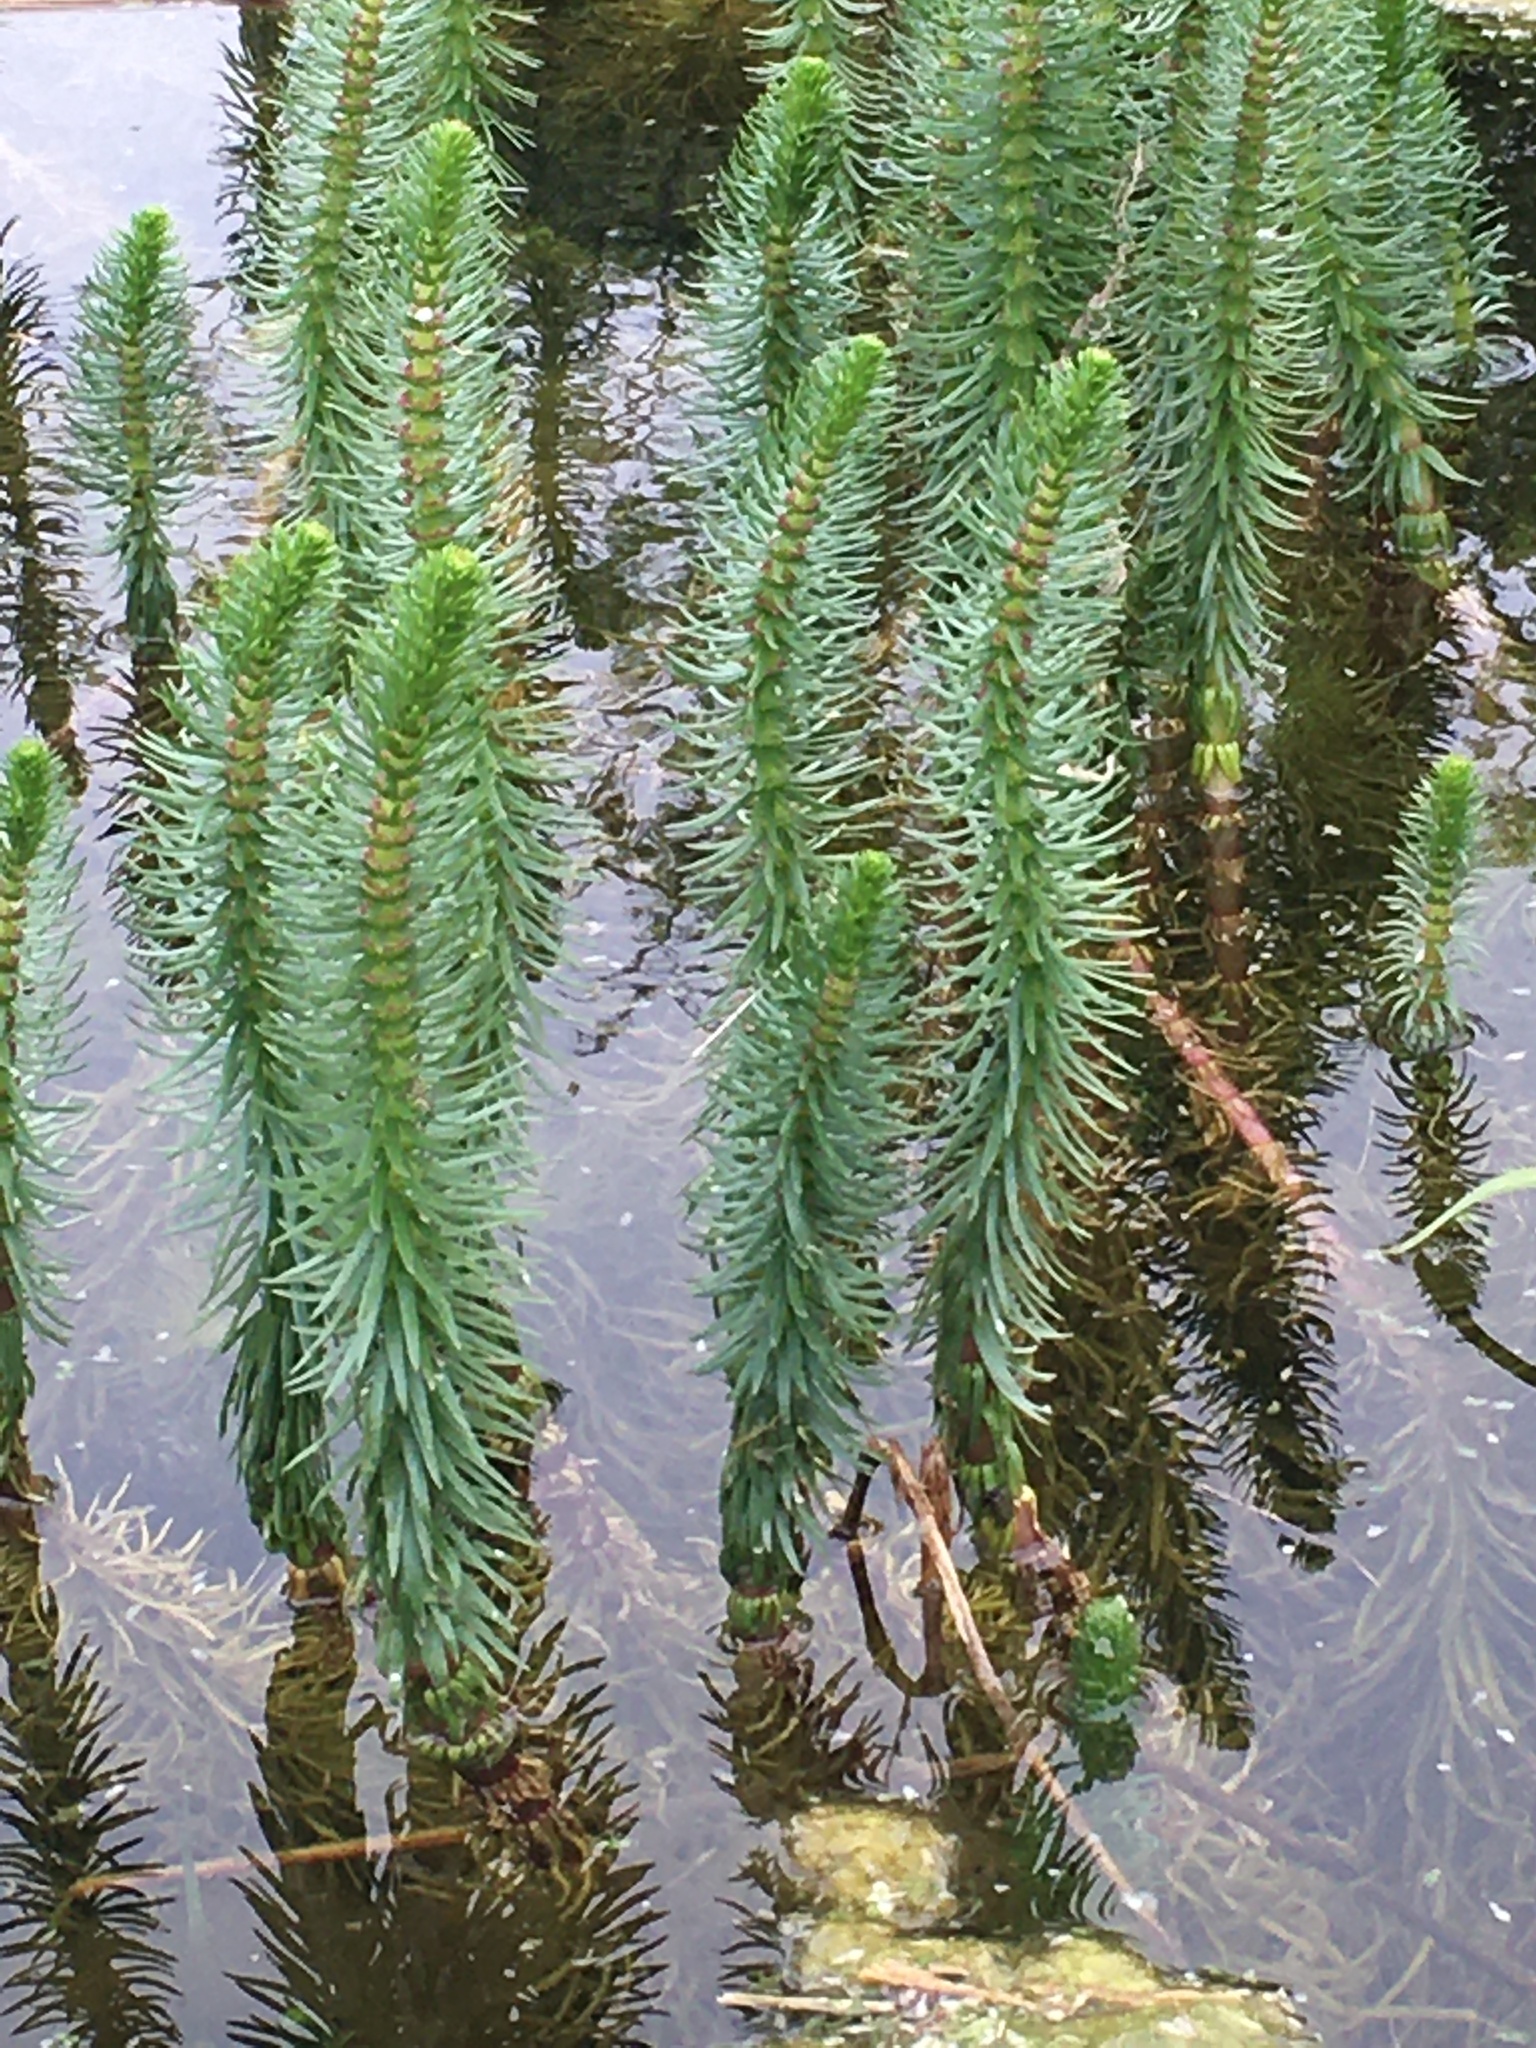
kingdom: Plantae
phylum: Tracheophyta
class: Magnoliopsida
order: Lamiales
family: Plantaginaceae
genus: Hippuris
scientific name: Hippuris vulgaris
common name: Mare's-tail
